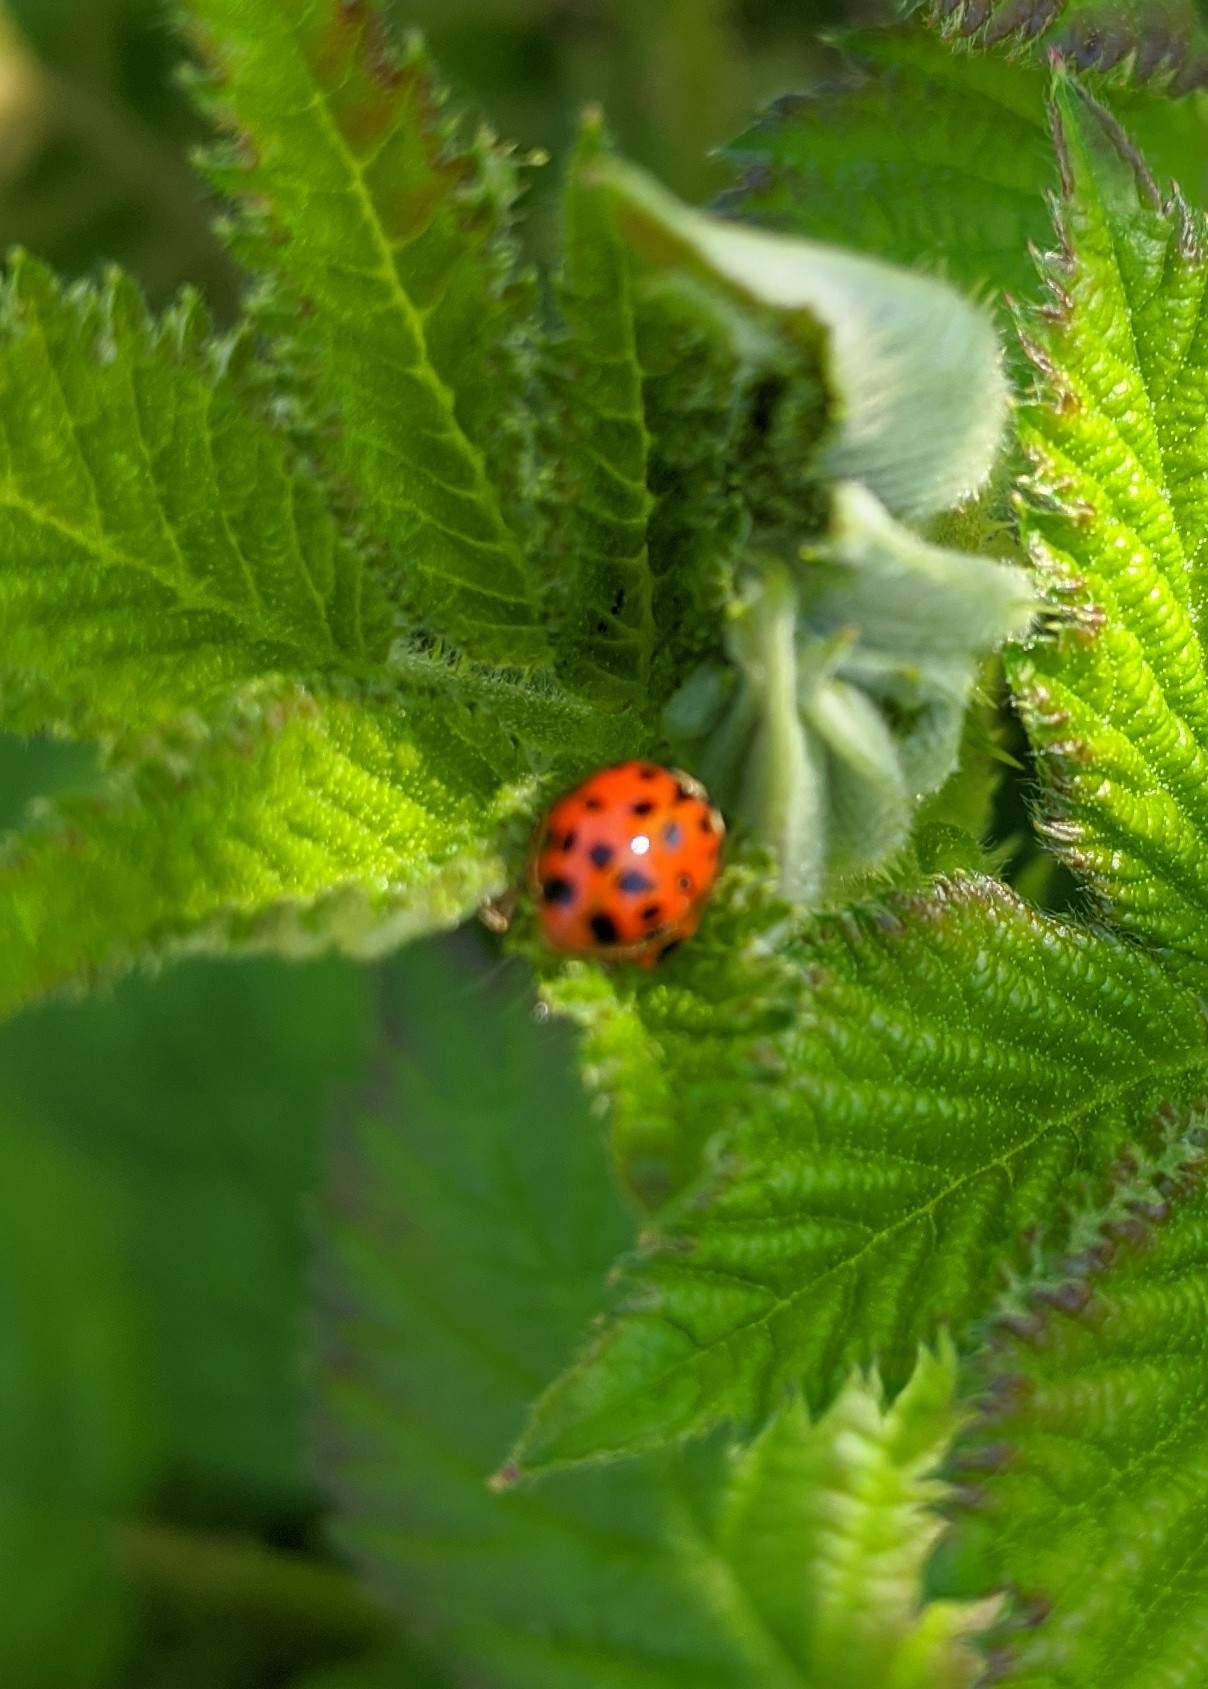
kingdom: Animalia
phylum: Arthropoda
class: Insecta
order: Coleoptera
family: Coccinellidae
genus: Harmonia
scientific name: Harmonia axyridis
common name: Harlequin ladybird
